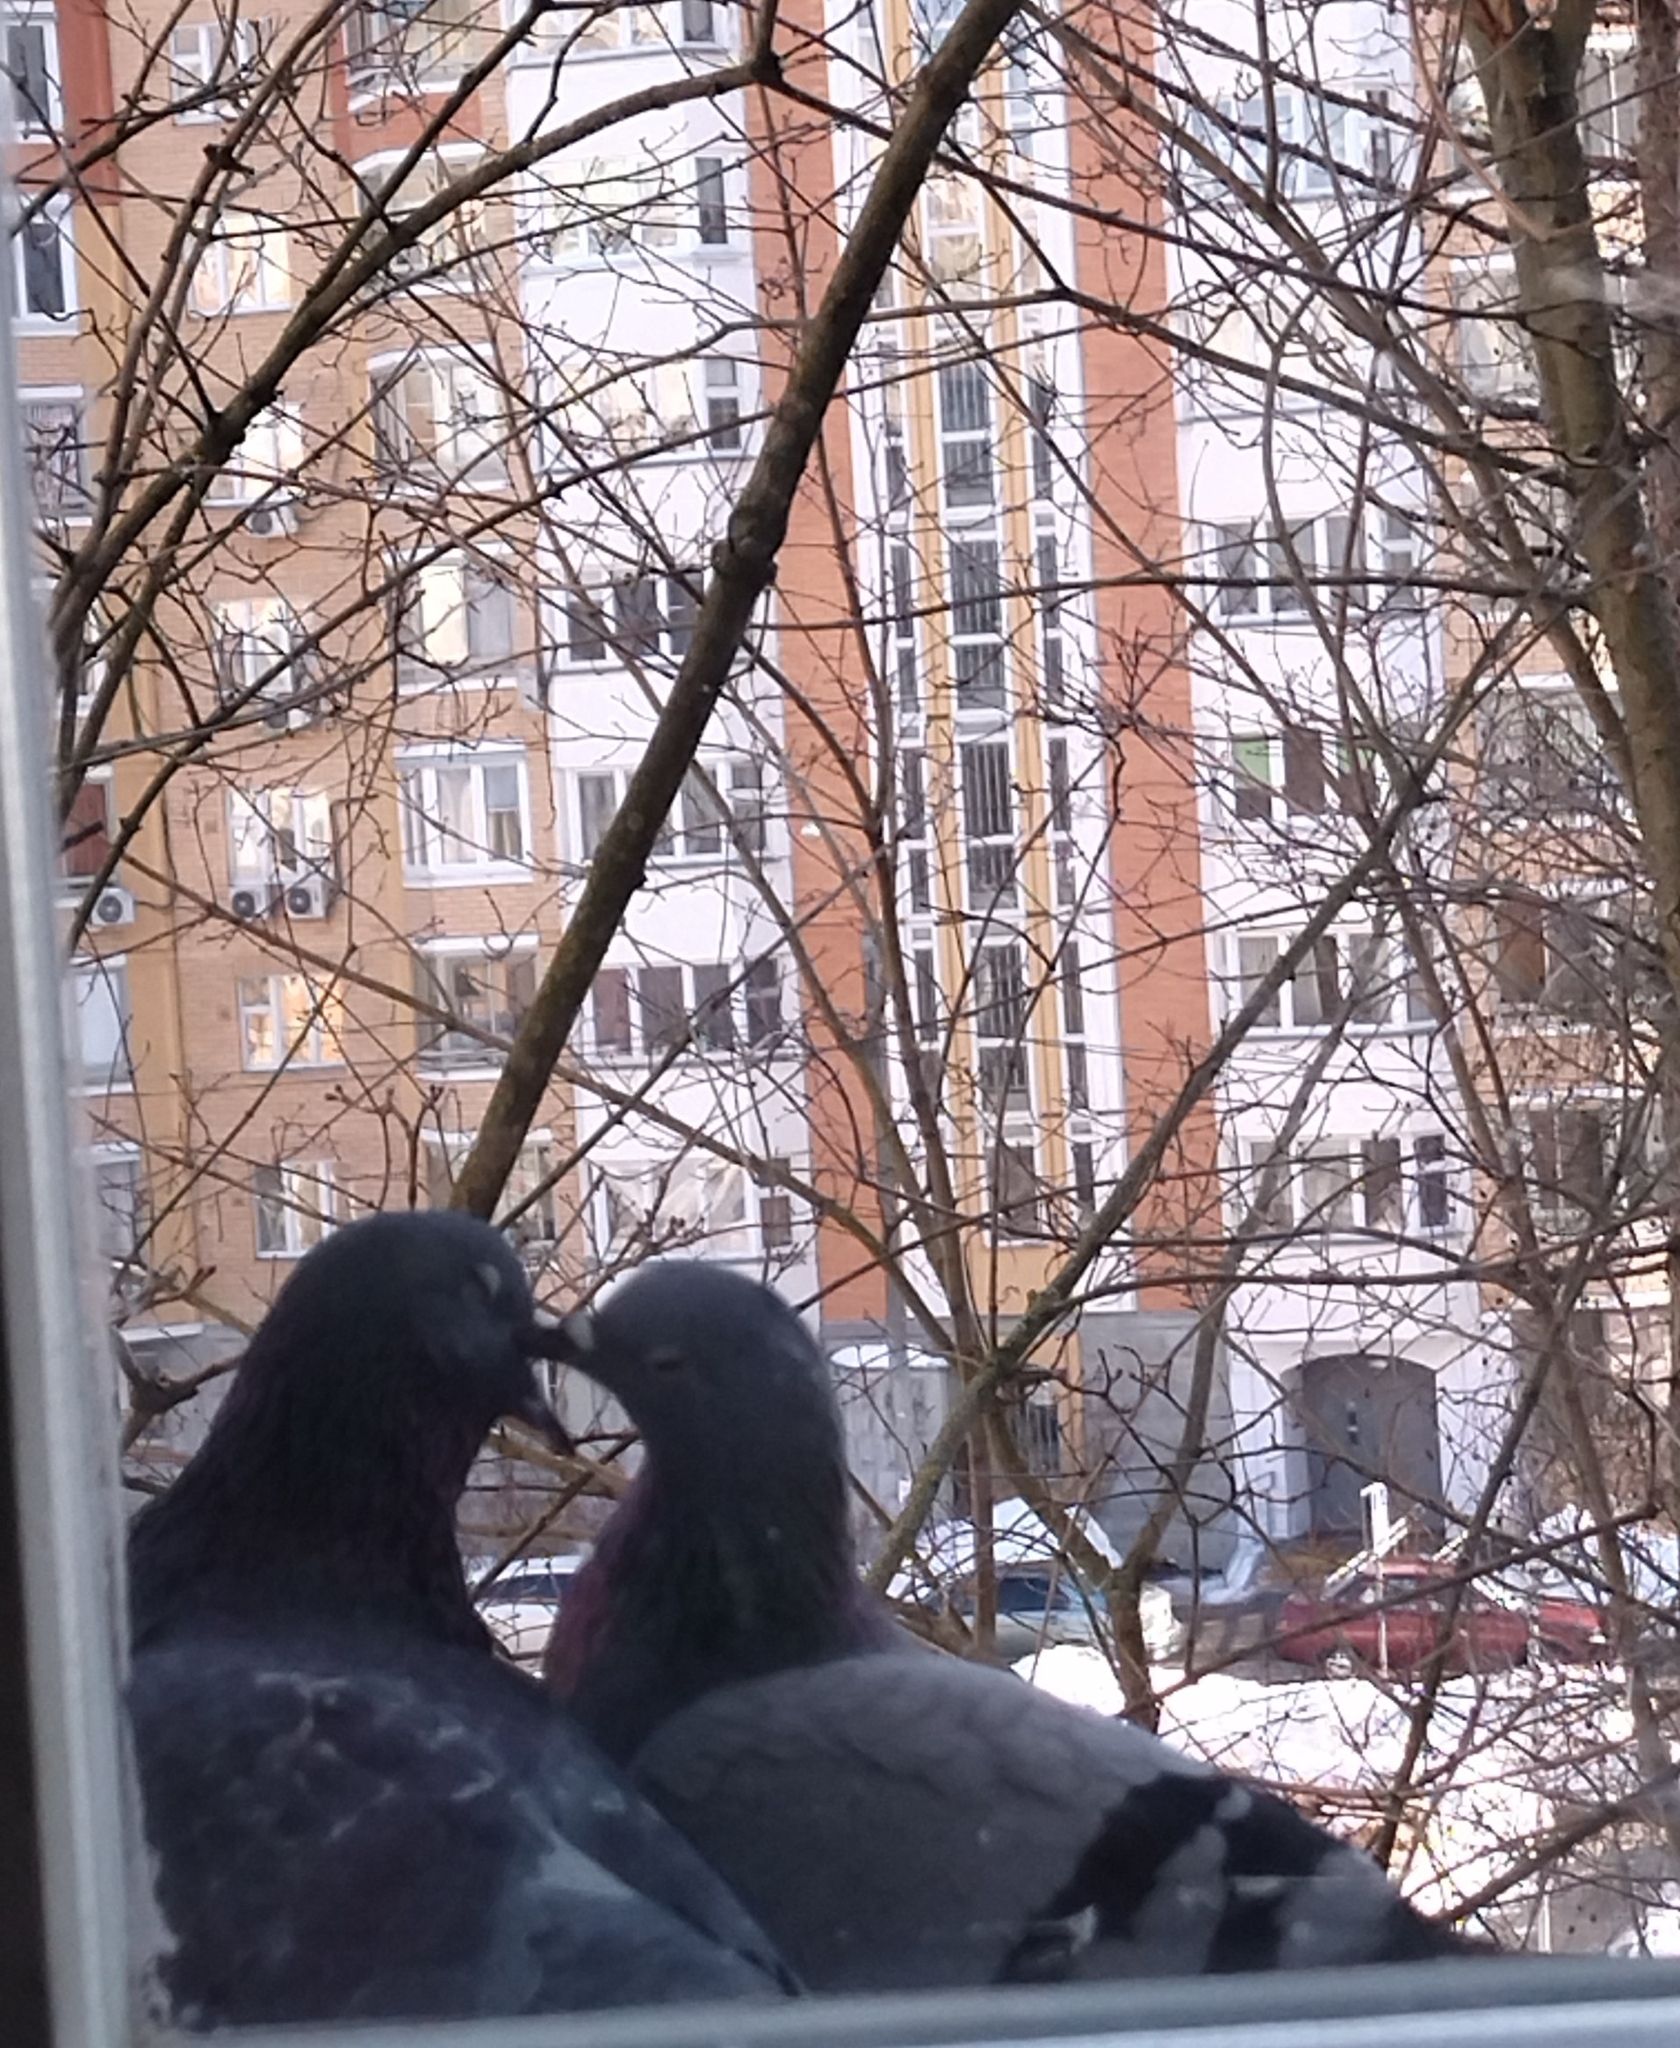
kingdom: Animalia
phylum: Chordata
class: Aves
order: Columbiformes
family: Columbidae
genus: Columba
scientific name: Columba livia
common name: Rock pigeon
